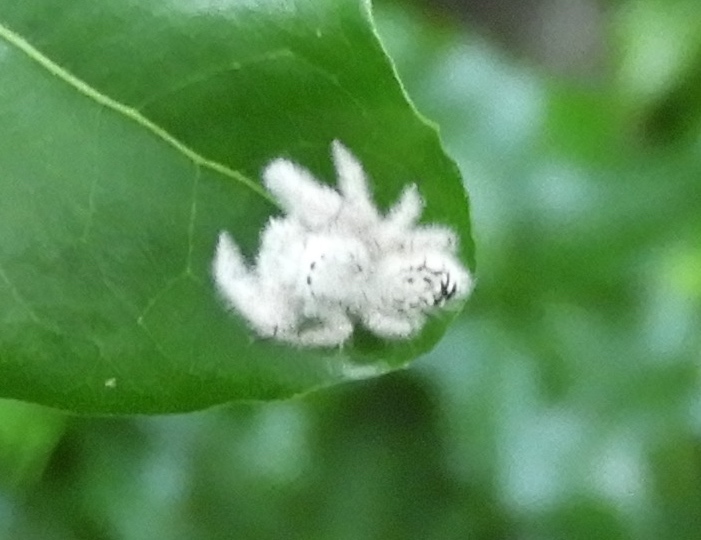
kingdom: Animalia
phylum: Arthropoda
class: Arachnida
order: Araneae
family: Salticidae
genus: Paraphidippus
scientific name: Paraphidippus fartilis
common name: Jumping spiders
